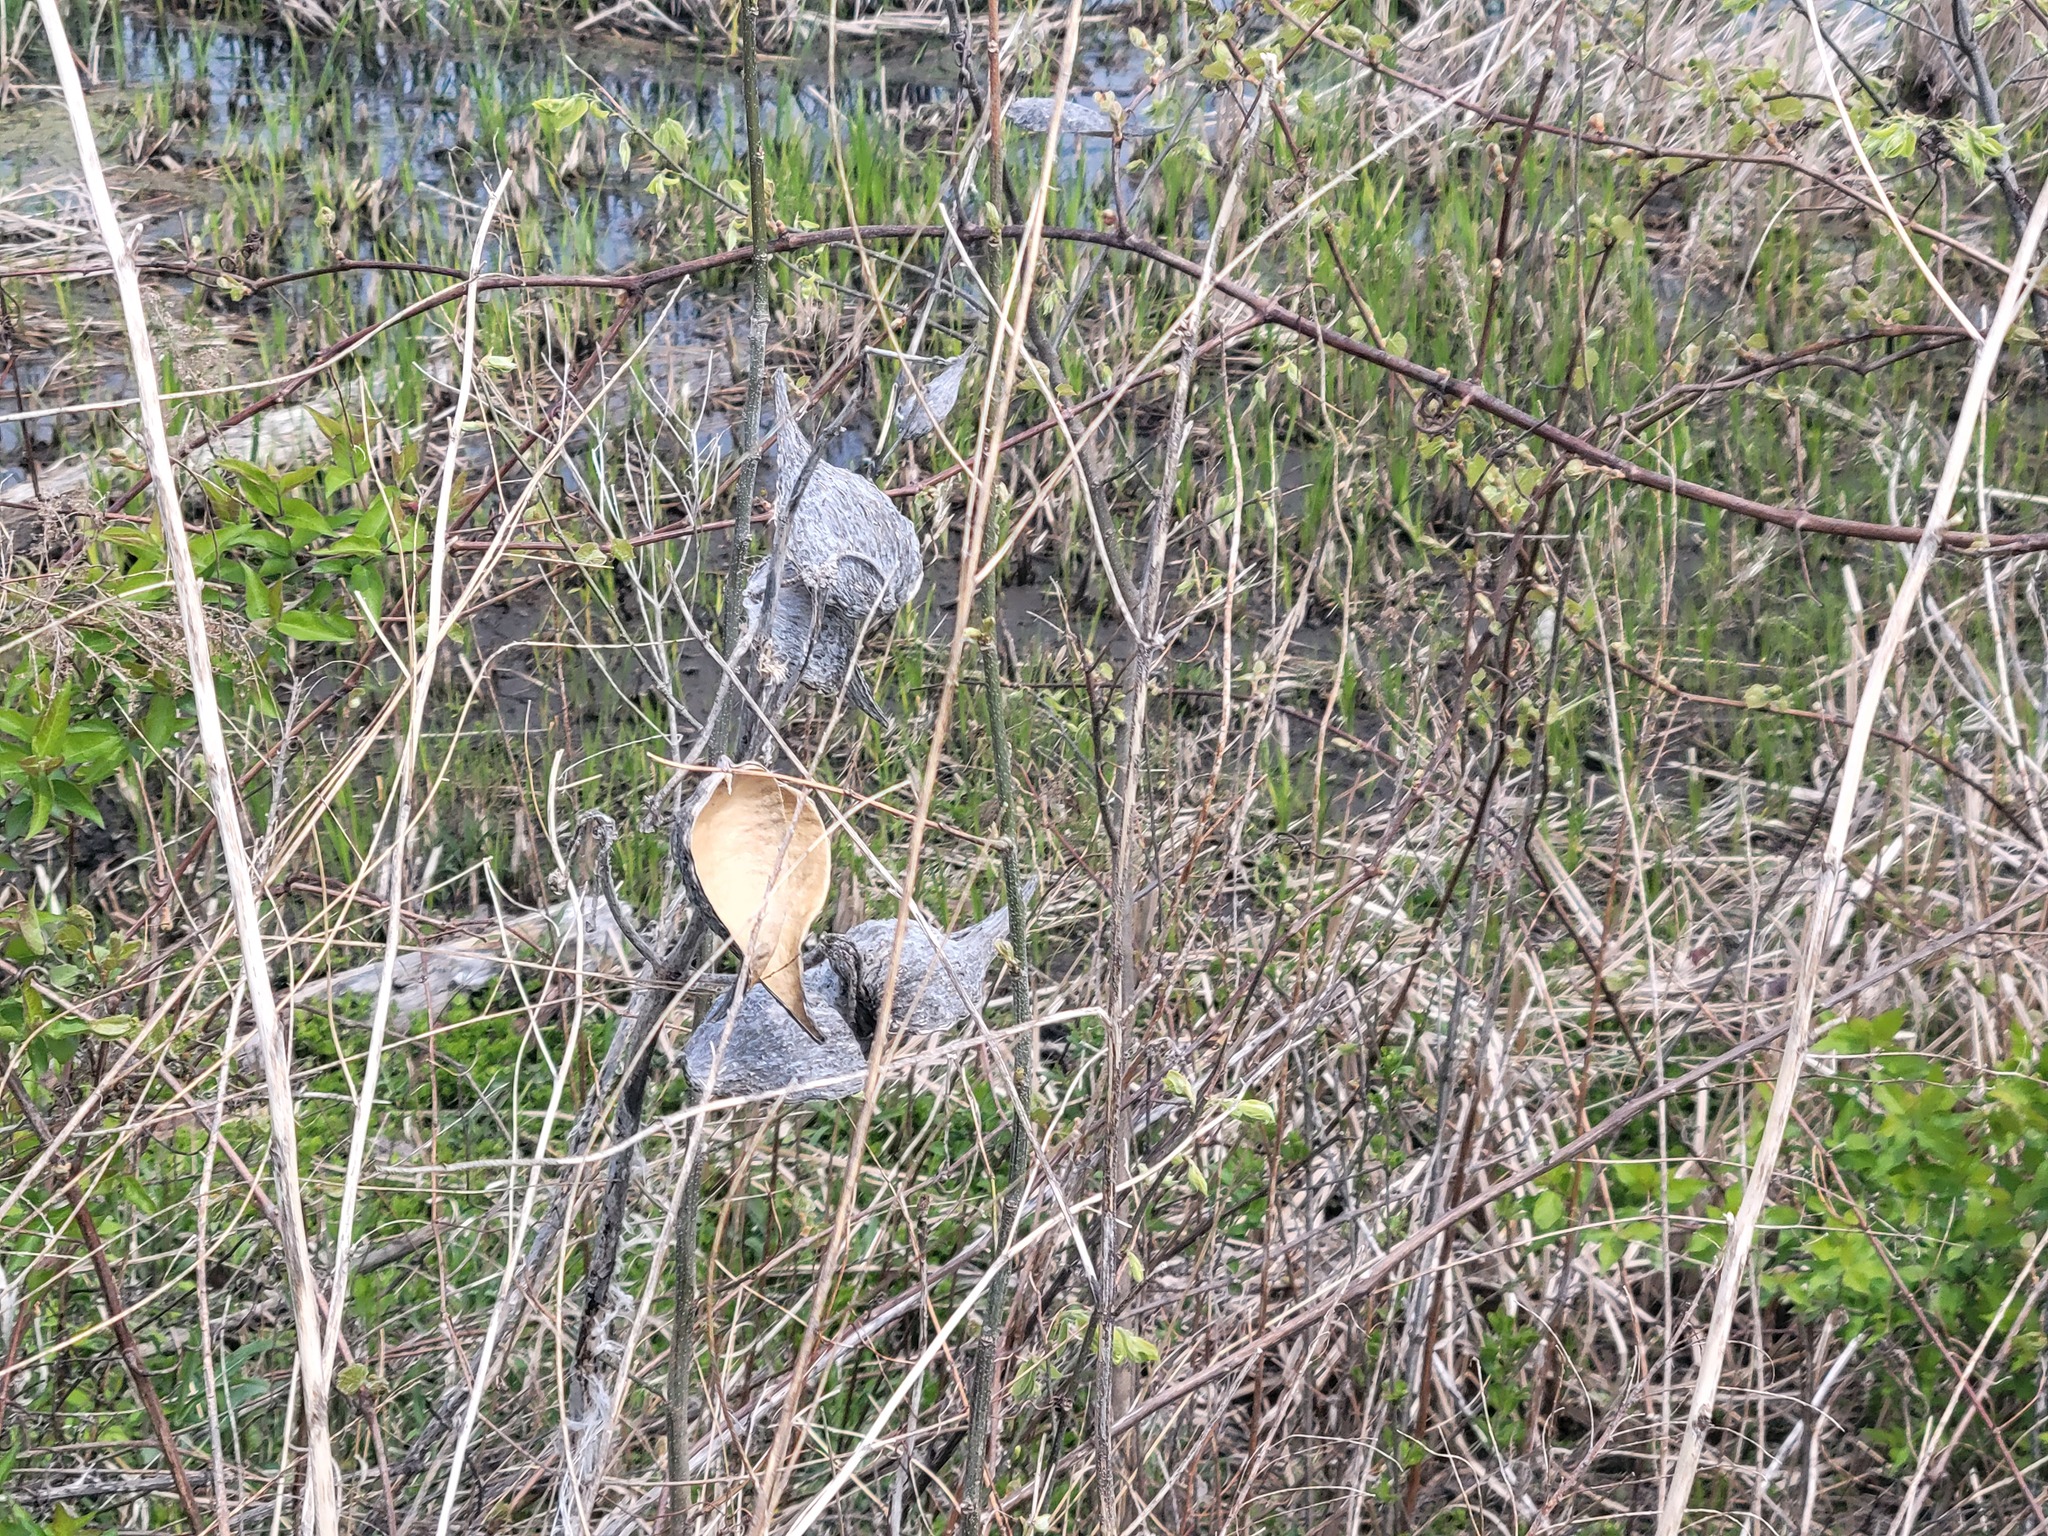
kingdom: Plantae
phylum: Tracheophyta
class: Magnoliopsida
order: Gentianales
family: Apocynaceae
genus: Asclepias
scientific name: Asclepias syriaca
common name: Common milkweed
